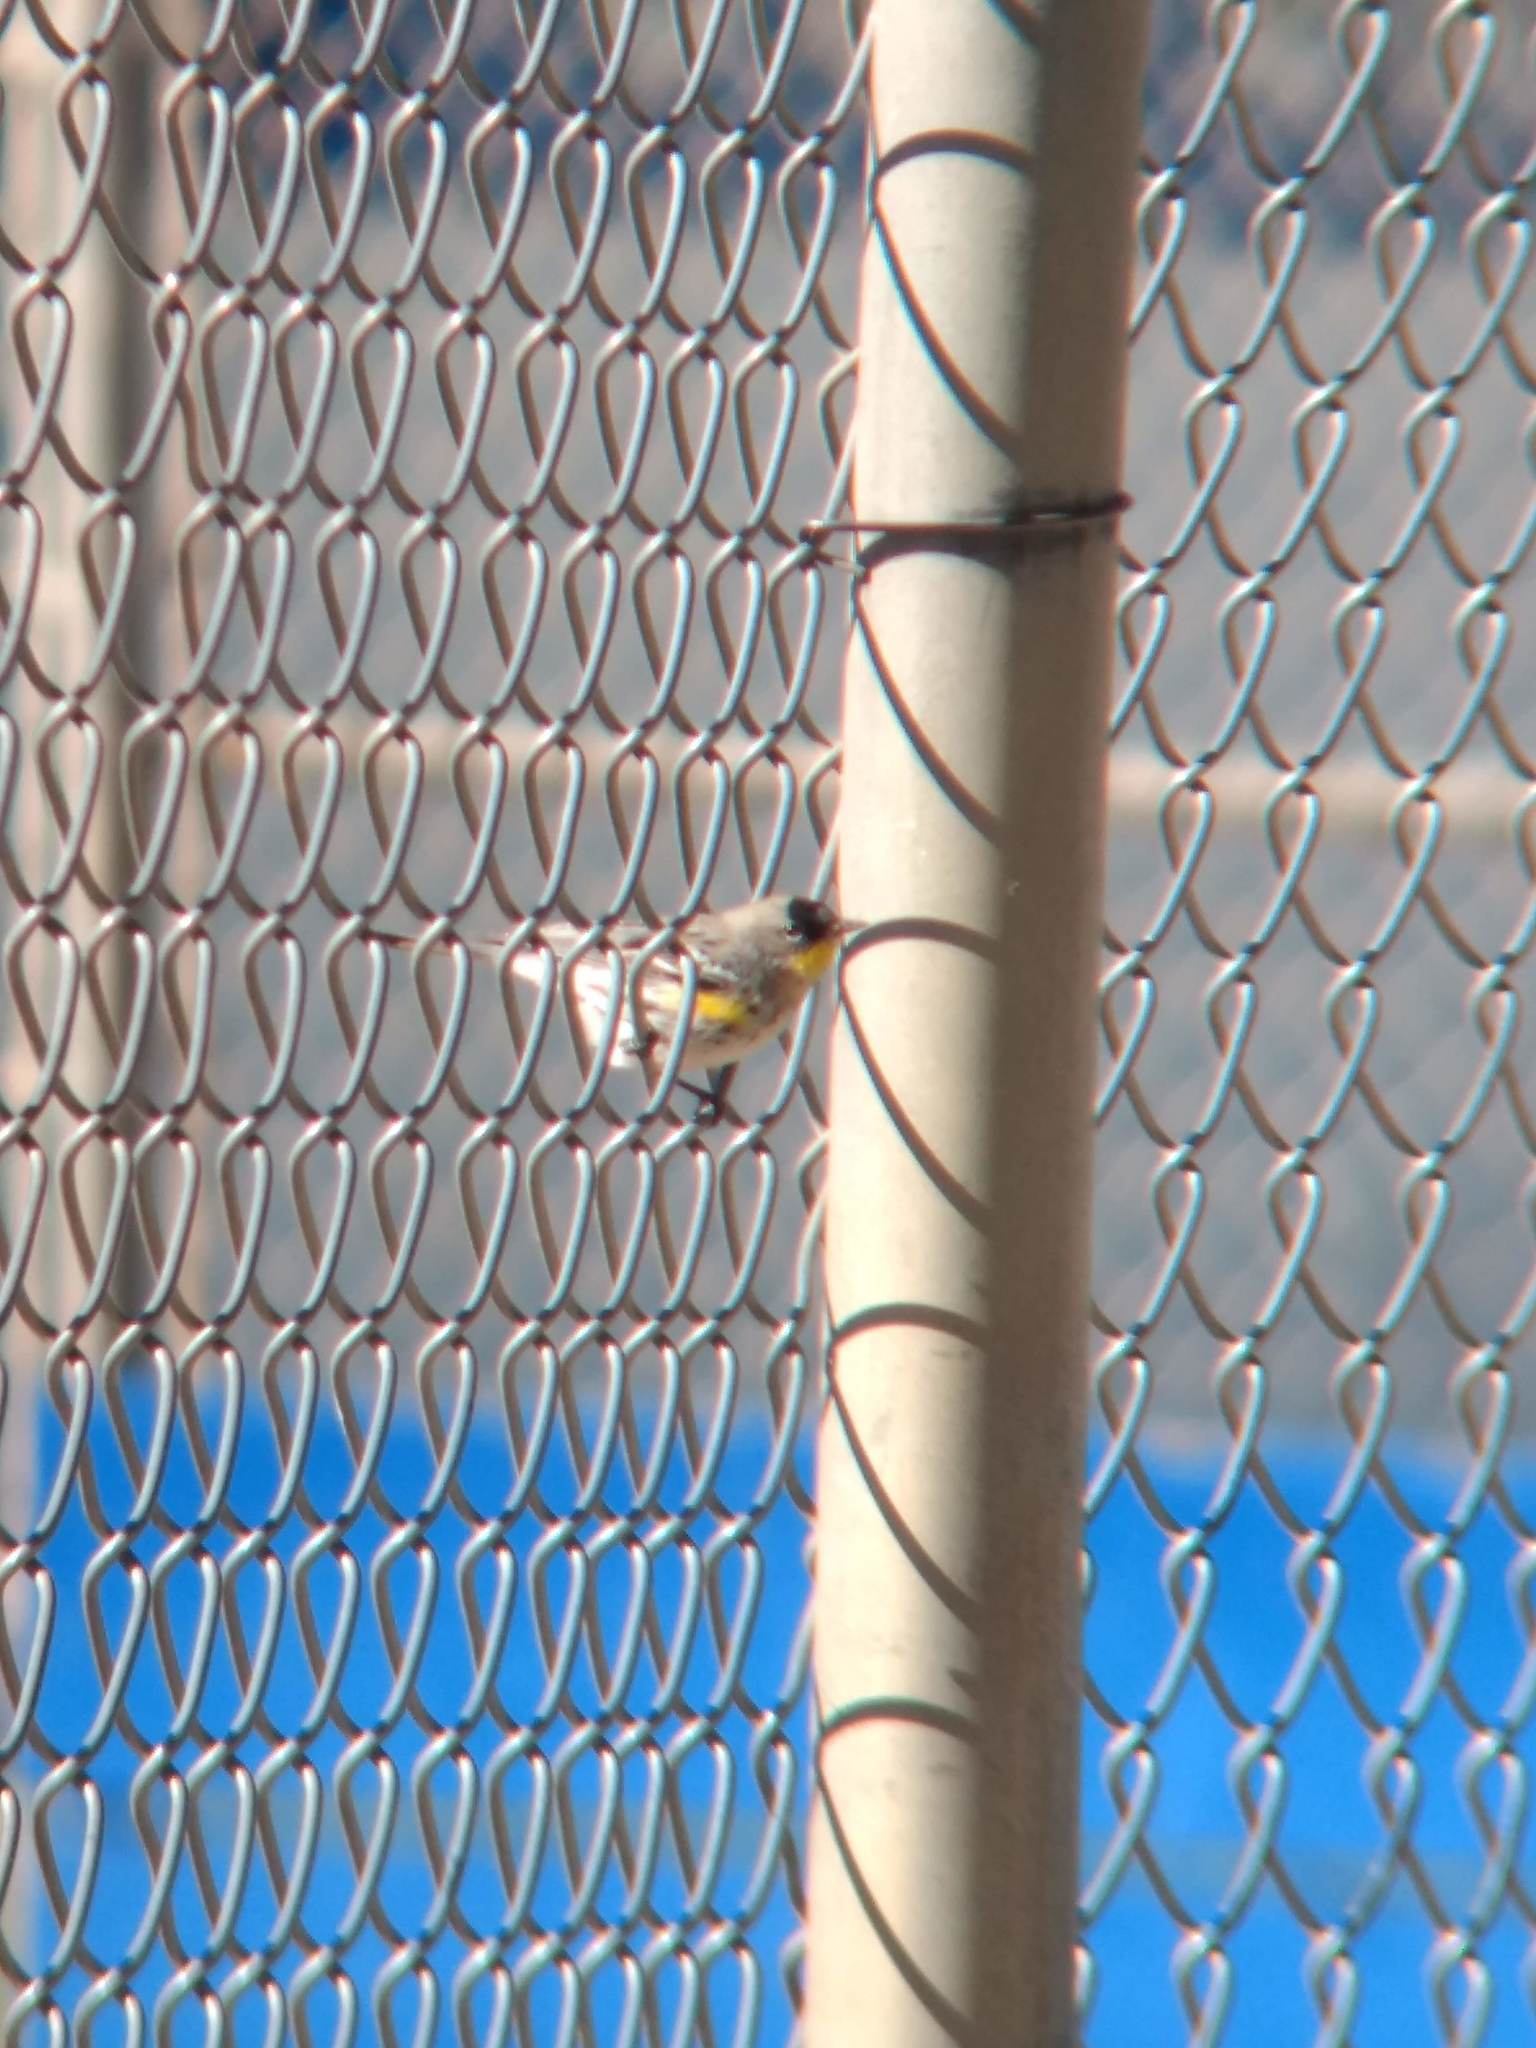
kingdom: Animalia
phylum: Chordata
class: Aves
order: Passeriformes
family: Parulidae
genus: Setophaga
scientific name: Setophaga coronata
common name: Myrtle warbler
